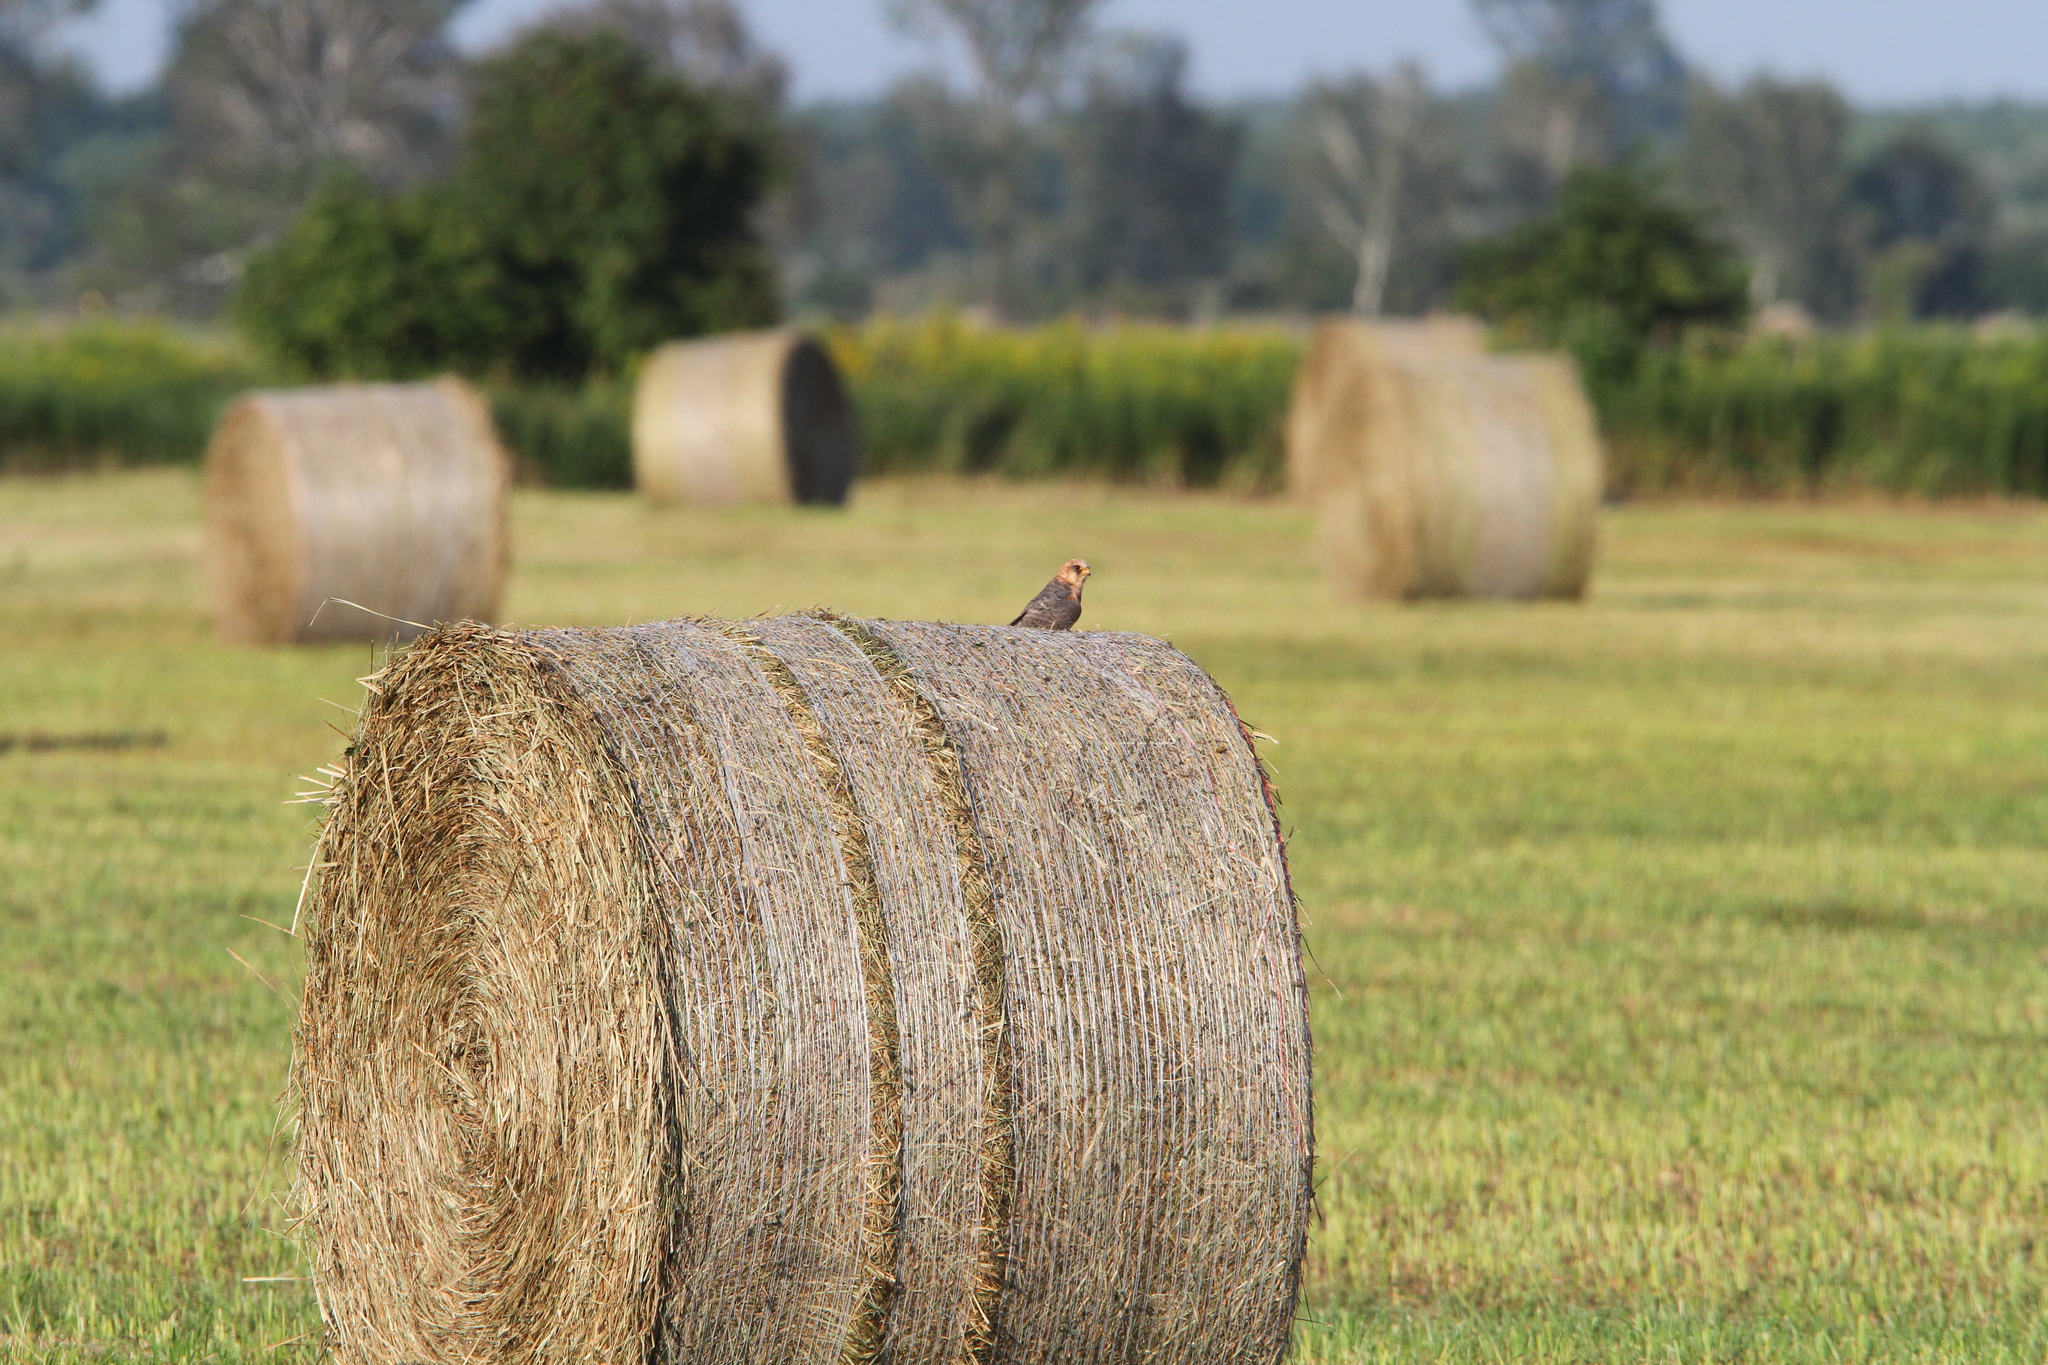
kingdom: Animalia
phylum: Chordata
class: Aves
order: Falconiformes
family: Falconidae
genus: Falco
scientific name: Falco vespertinus
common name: Red-footed falcon
